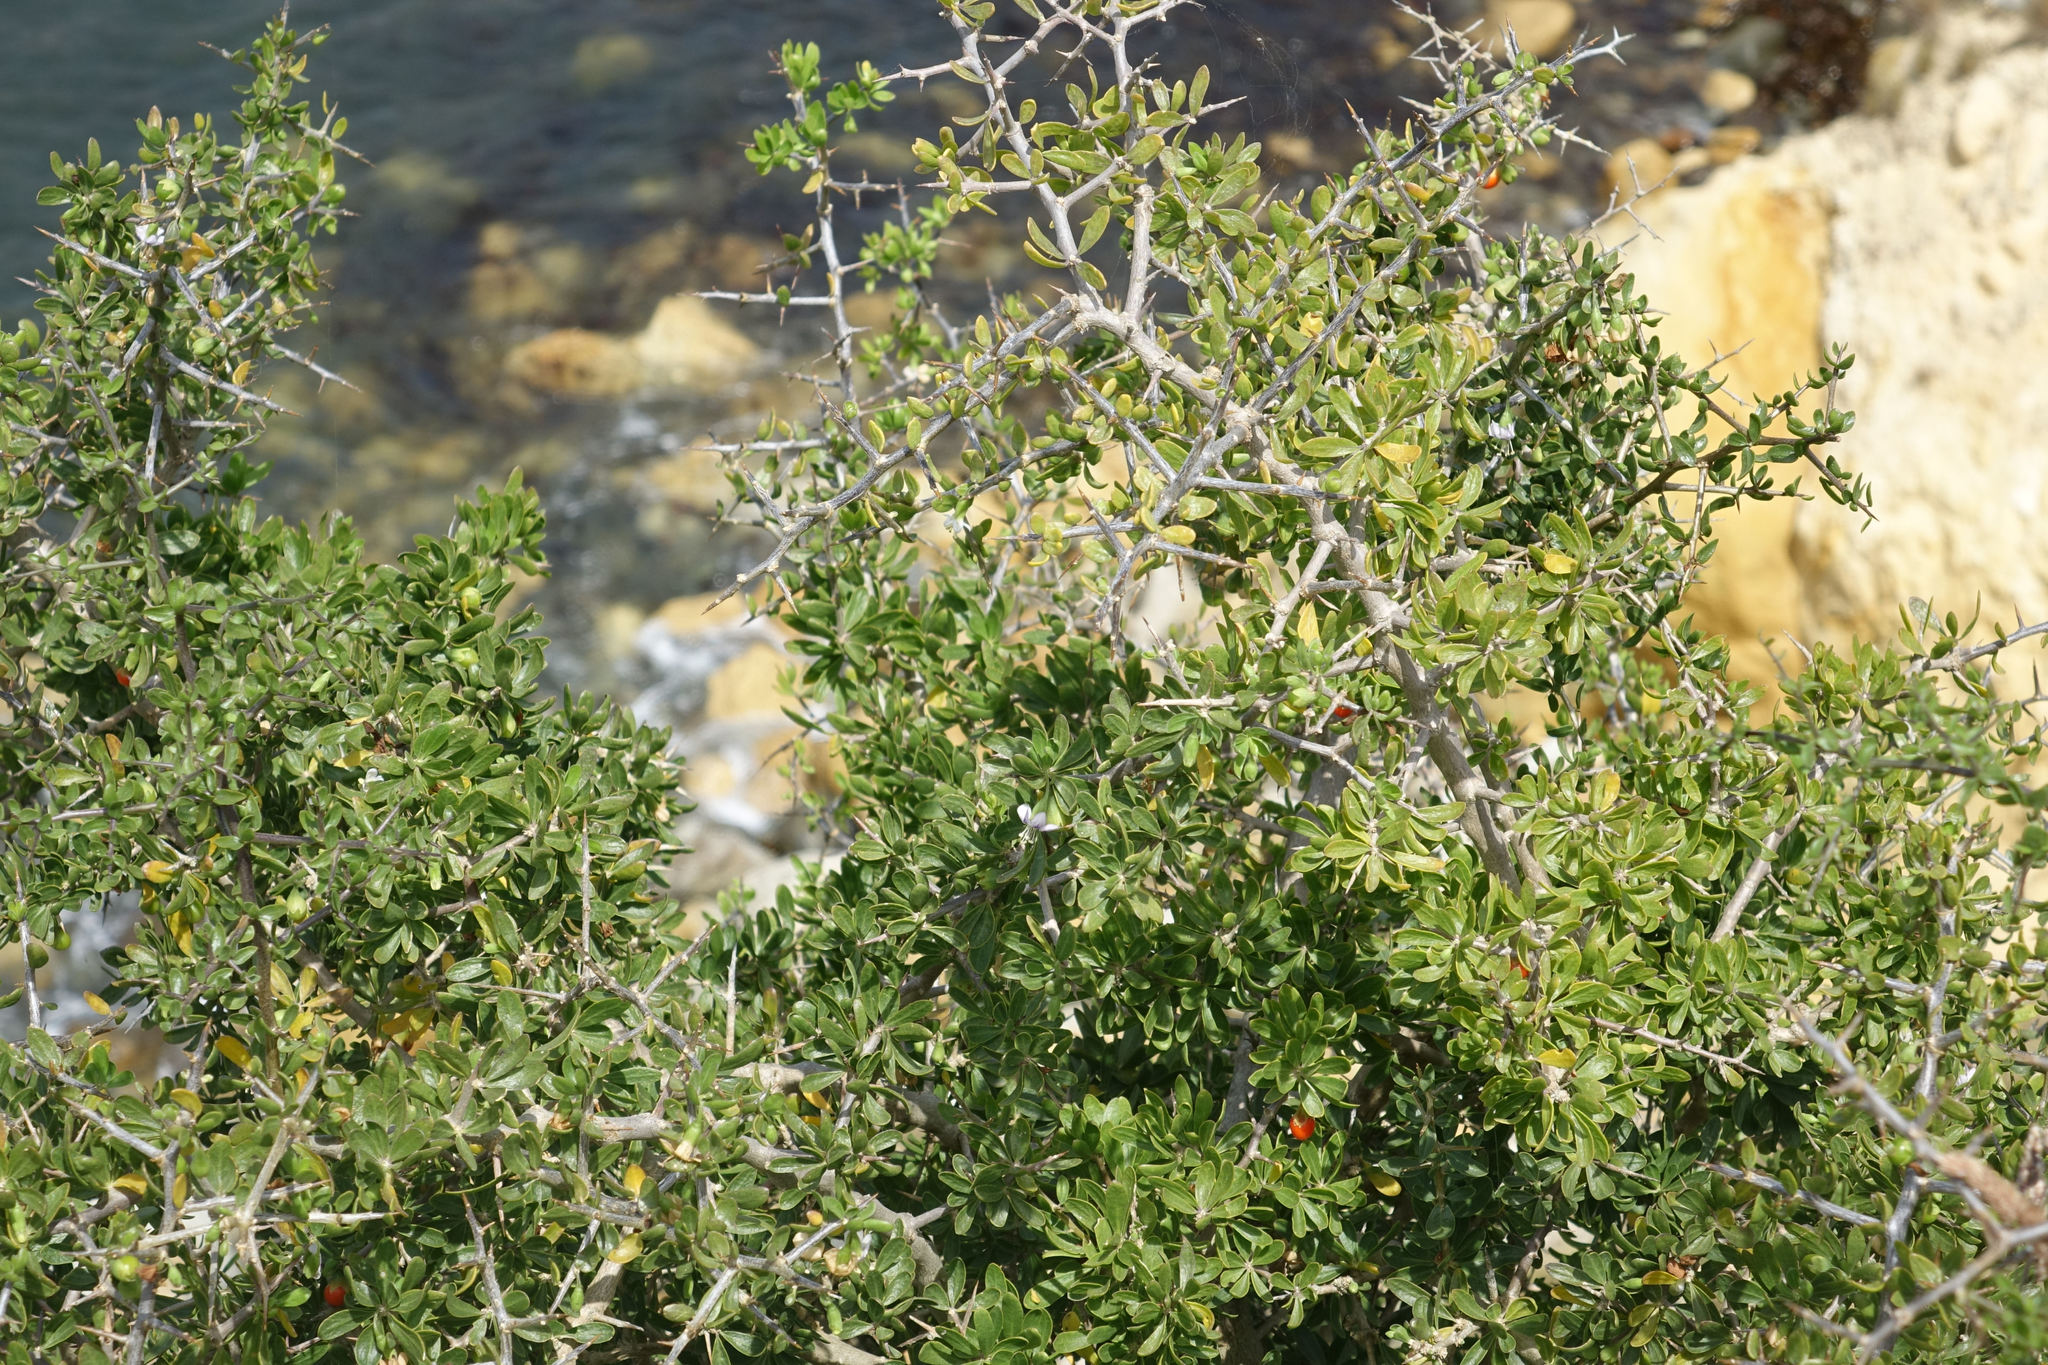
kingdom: Plantae
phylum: Tracheophyta
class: Magnoliopsida
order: Solanales
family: Solanaceae
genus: Lycium
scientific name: Lycium ferocissimum
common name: African boxthorn
